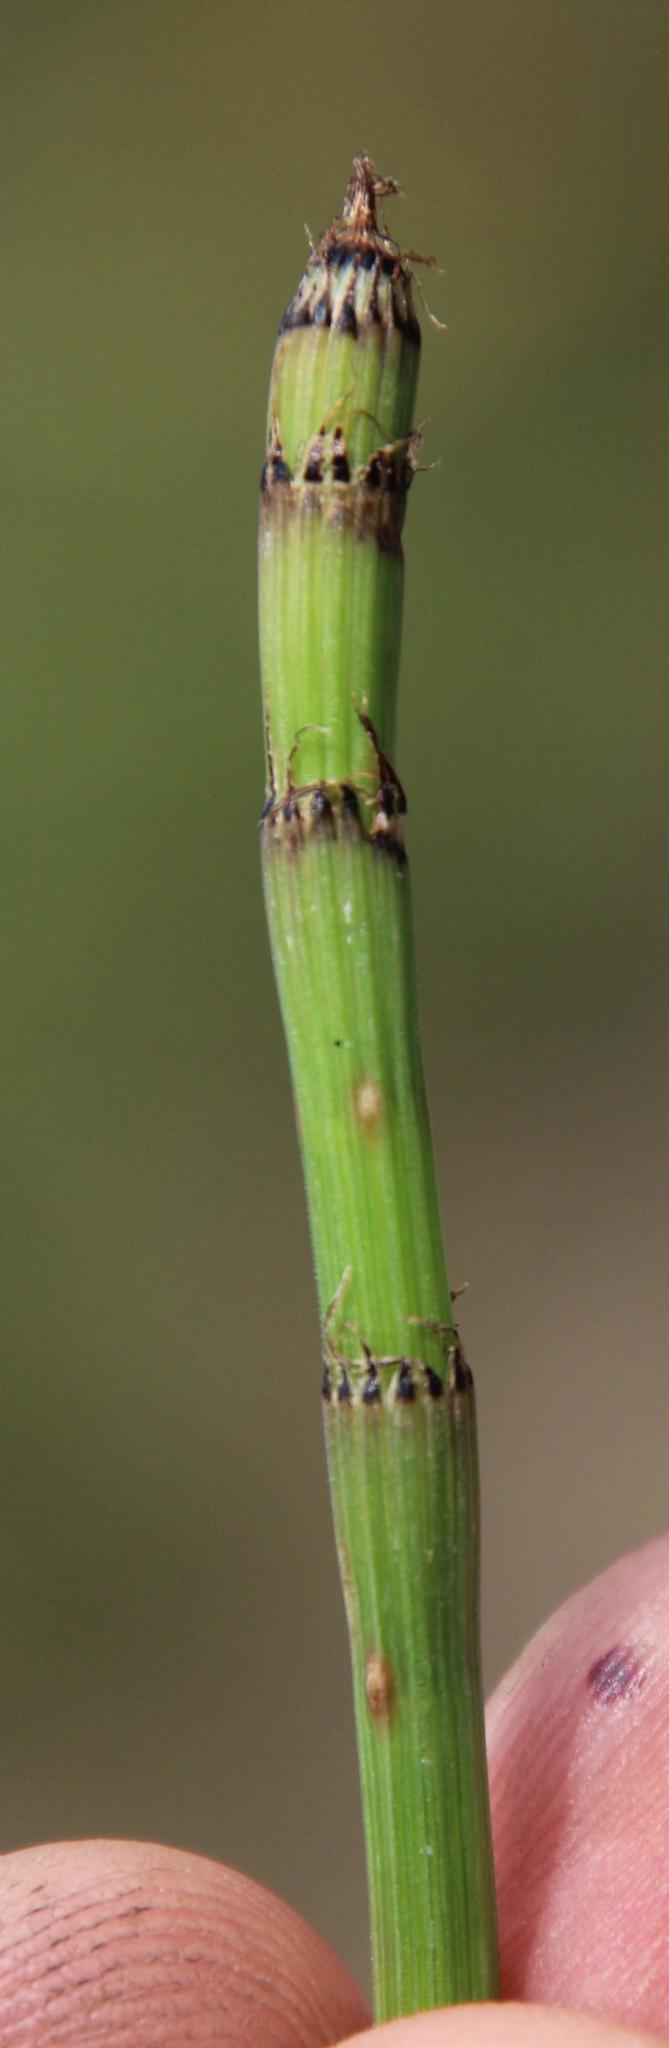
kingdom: Plantae
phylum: Tracheophyta
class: Polypodiopsida
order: Equisetales
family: Equisetaceae
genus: Equisetum
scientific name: Equisetum ramosissimum
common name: Branched horsetail
